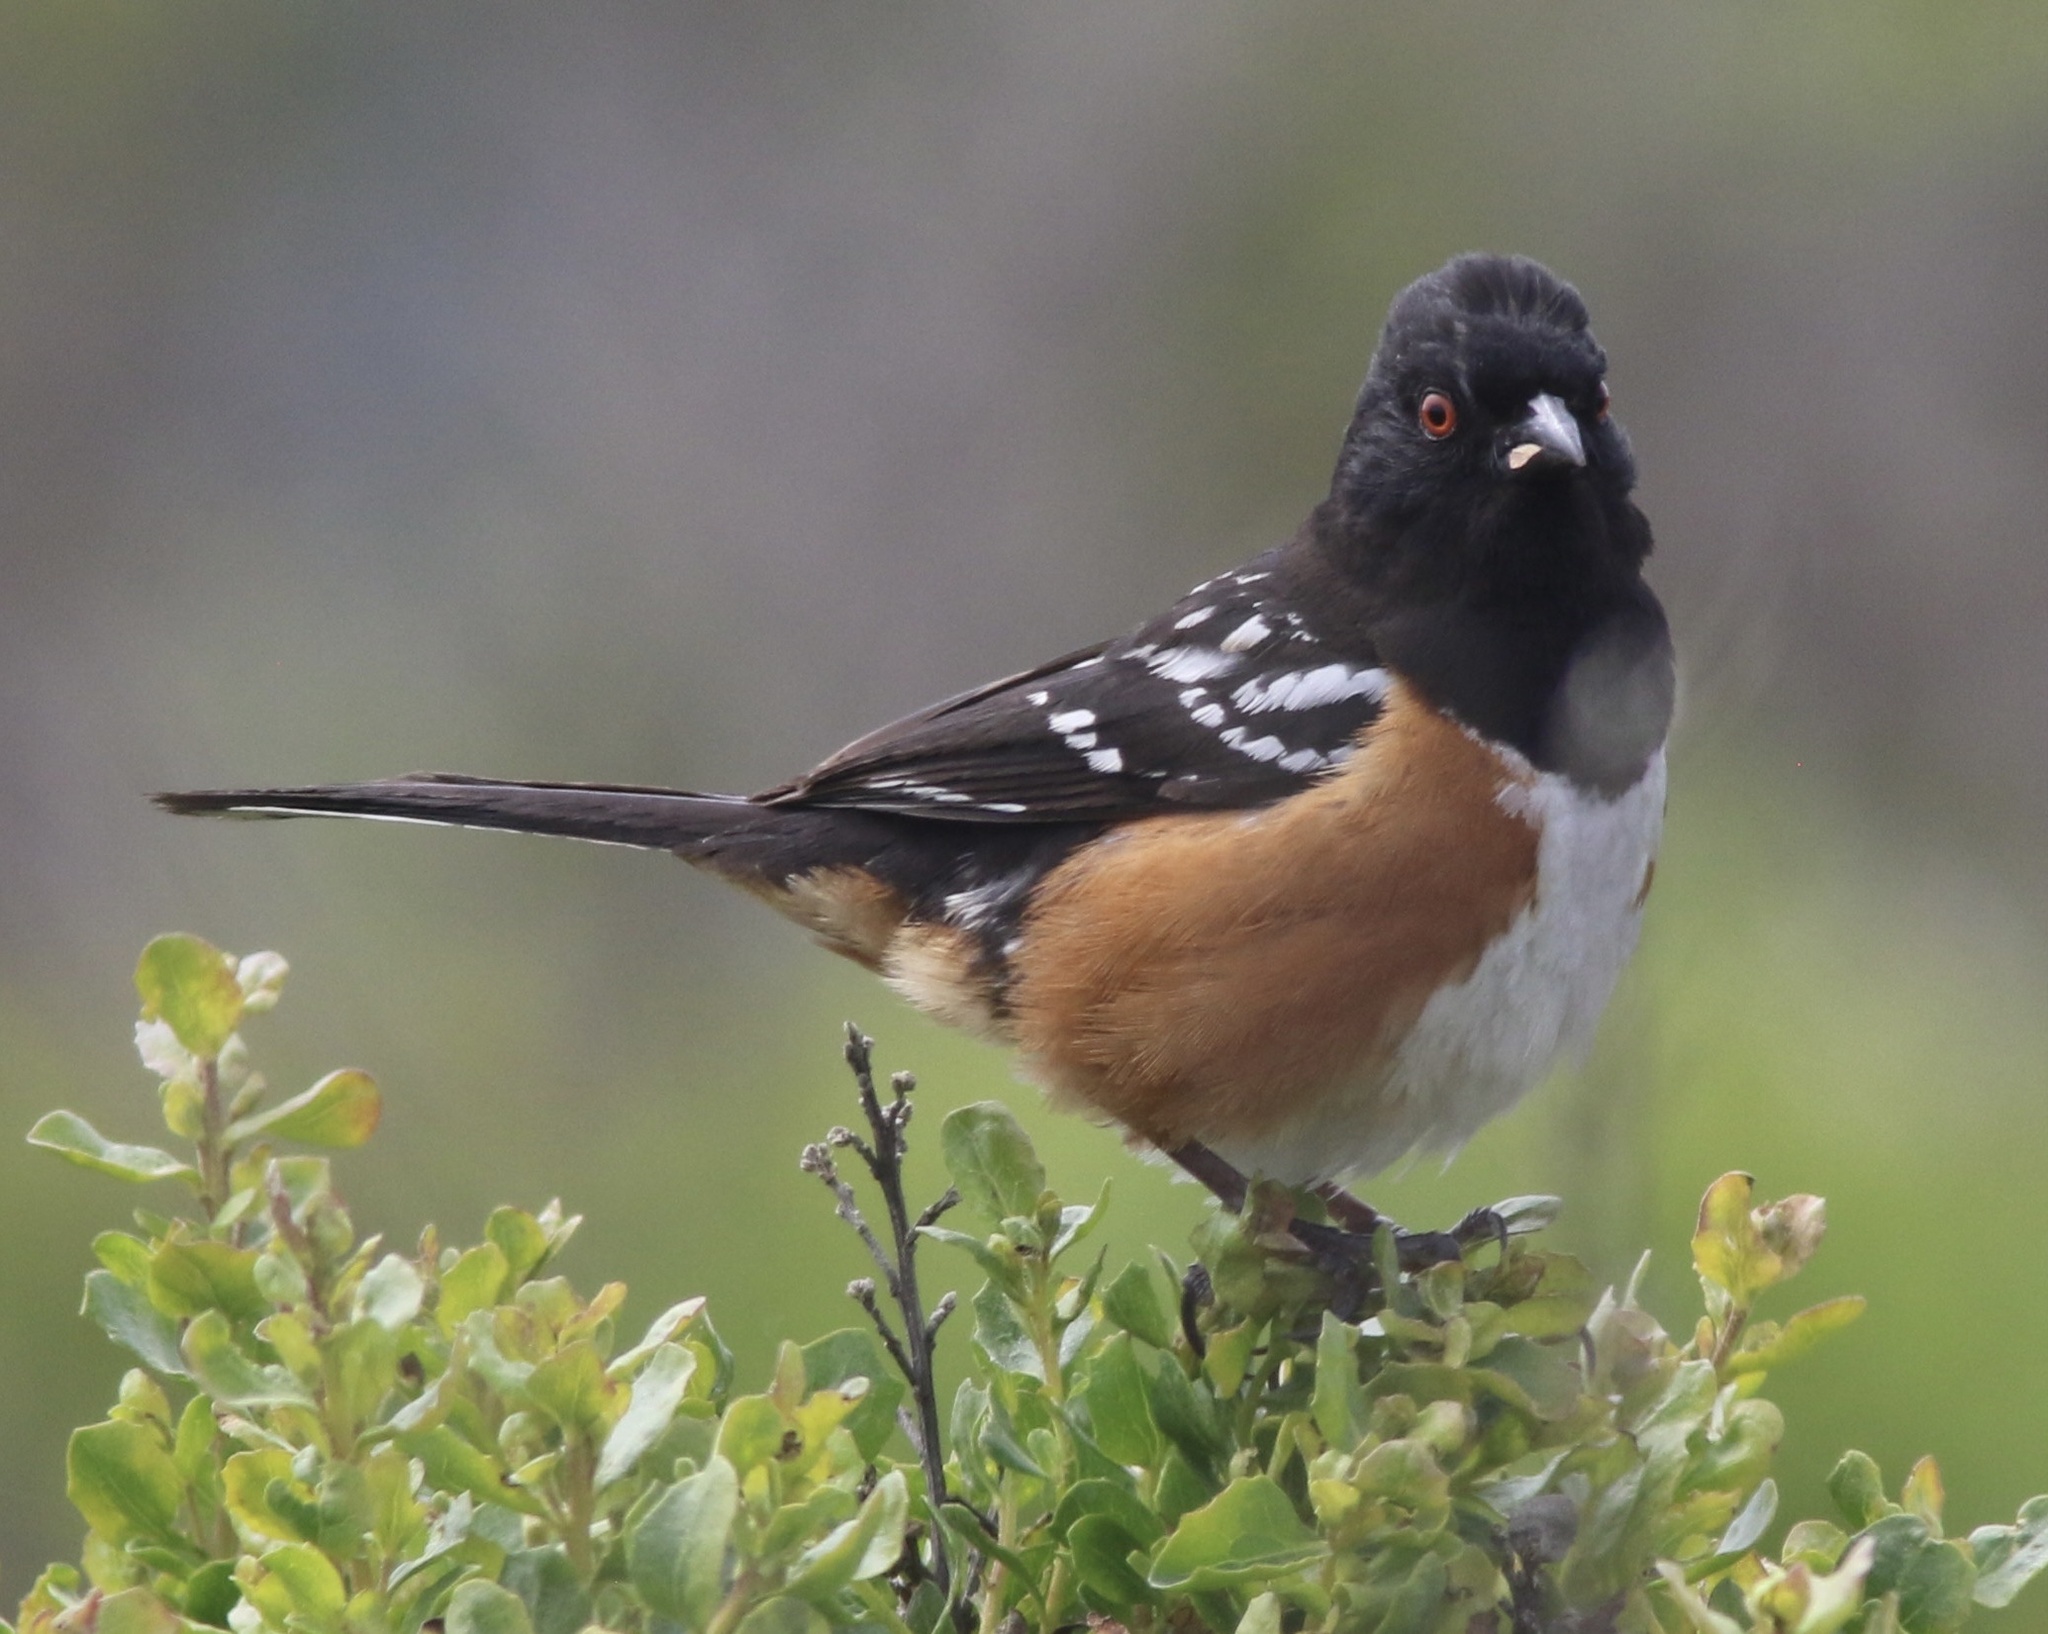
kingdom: Animalia
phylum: Chordata
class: Aves
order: Passeriformes
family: Passerellidae
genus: Pipilo
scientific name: Pipilo maculatus
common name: Spotted towhee
